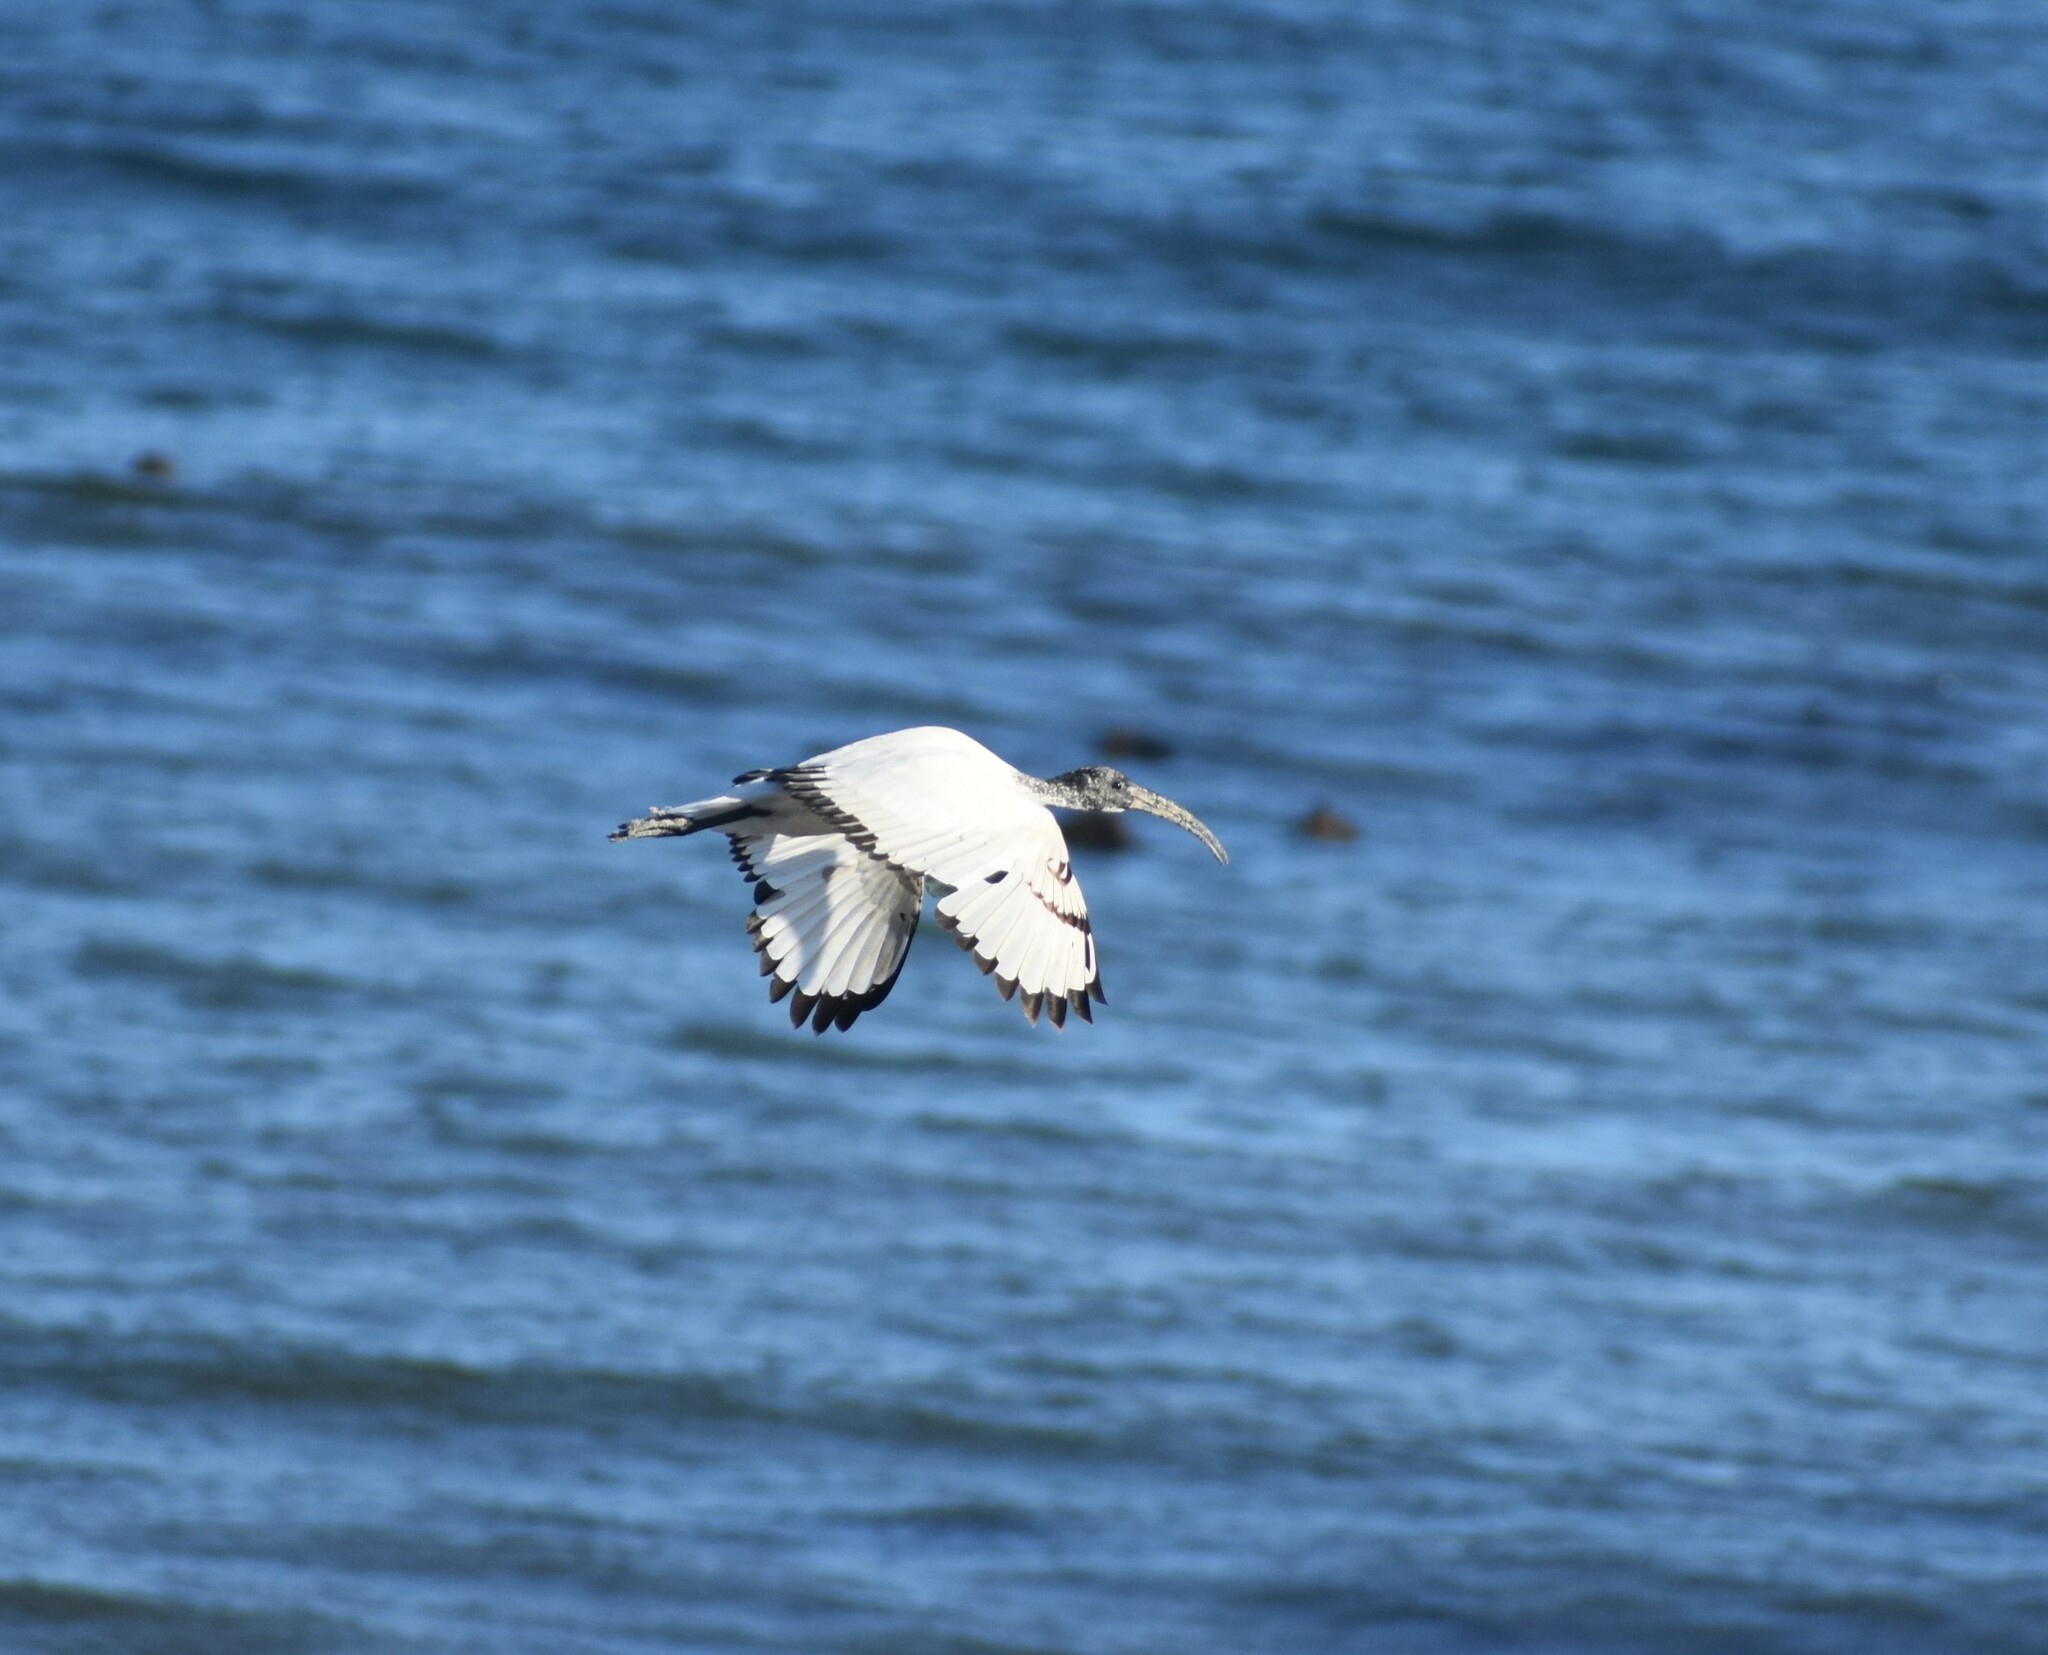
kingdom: Animalia
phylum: Chordata
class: Aves
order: Pelecaniformes
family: Threskiornithidae
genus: Threskiornis
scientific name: Threskiornis aethiopicus
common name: Sacred ibis
